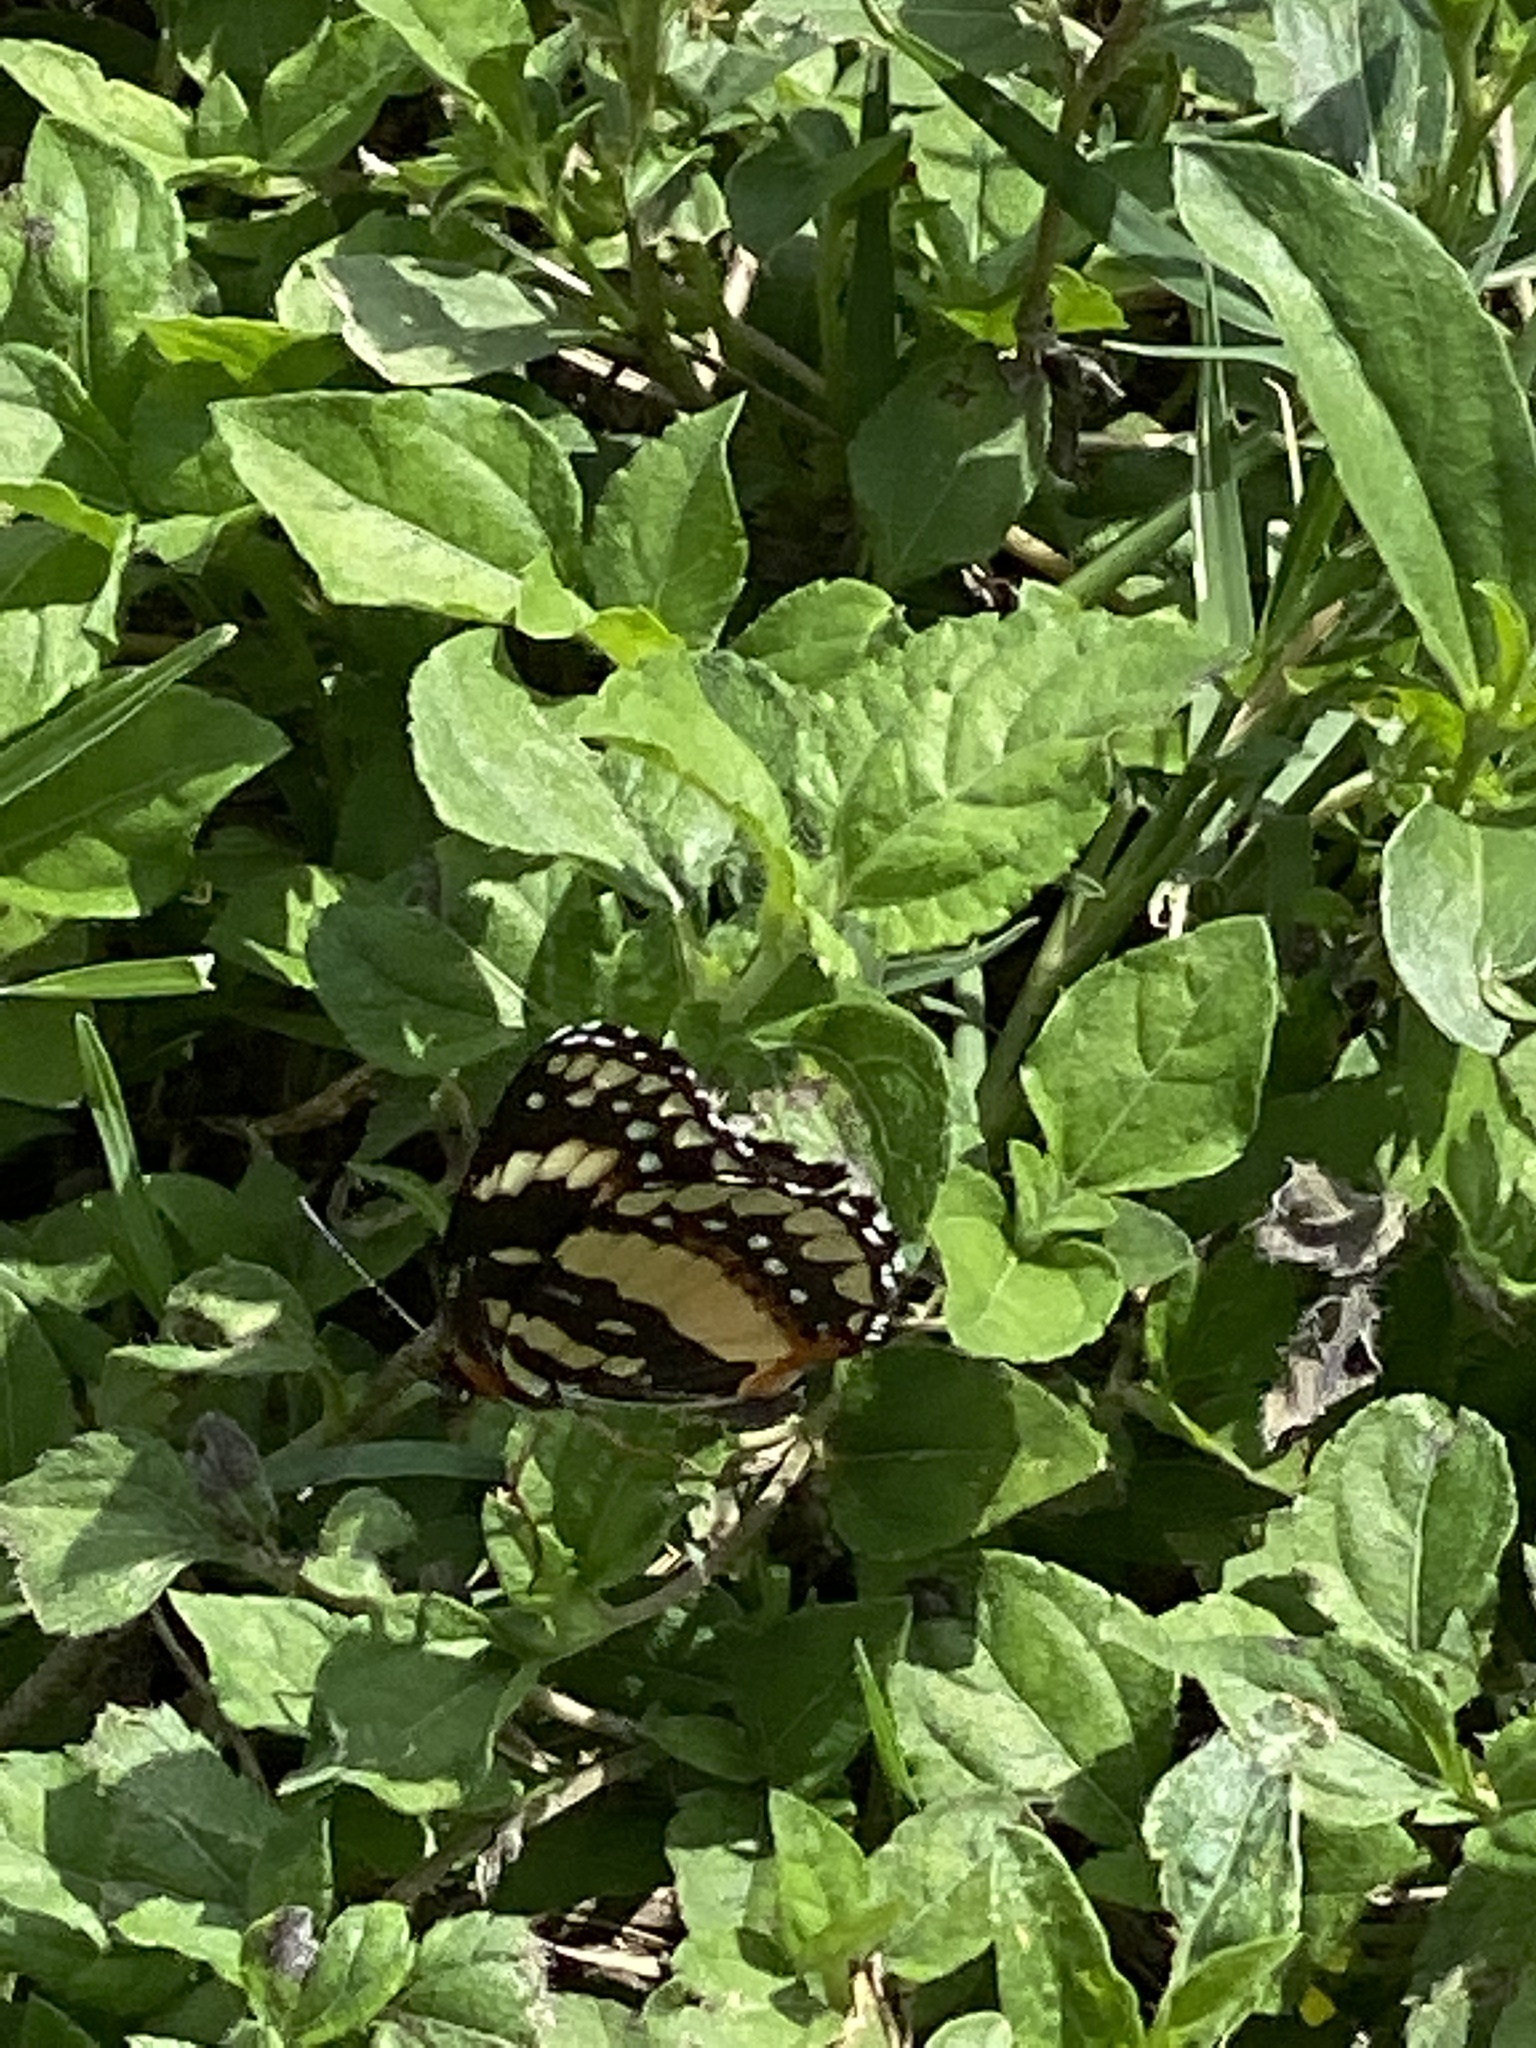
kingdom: Animalia
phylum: Arthropoda
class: Insecta
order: Lepidoptera
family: Nymphalidae
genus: Chlosyne
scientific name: Chlosyne lacinia
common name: Bordered patch
